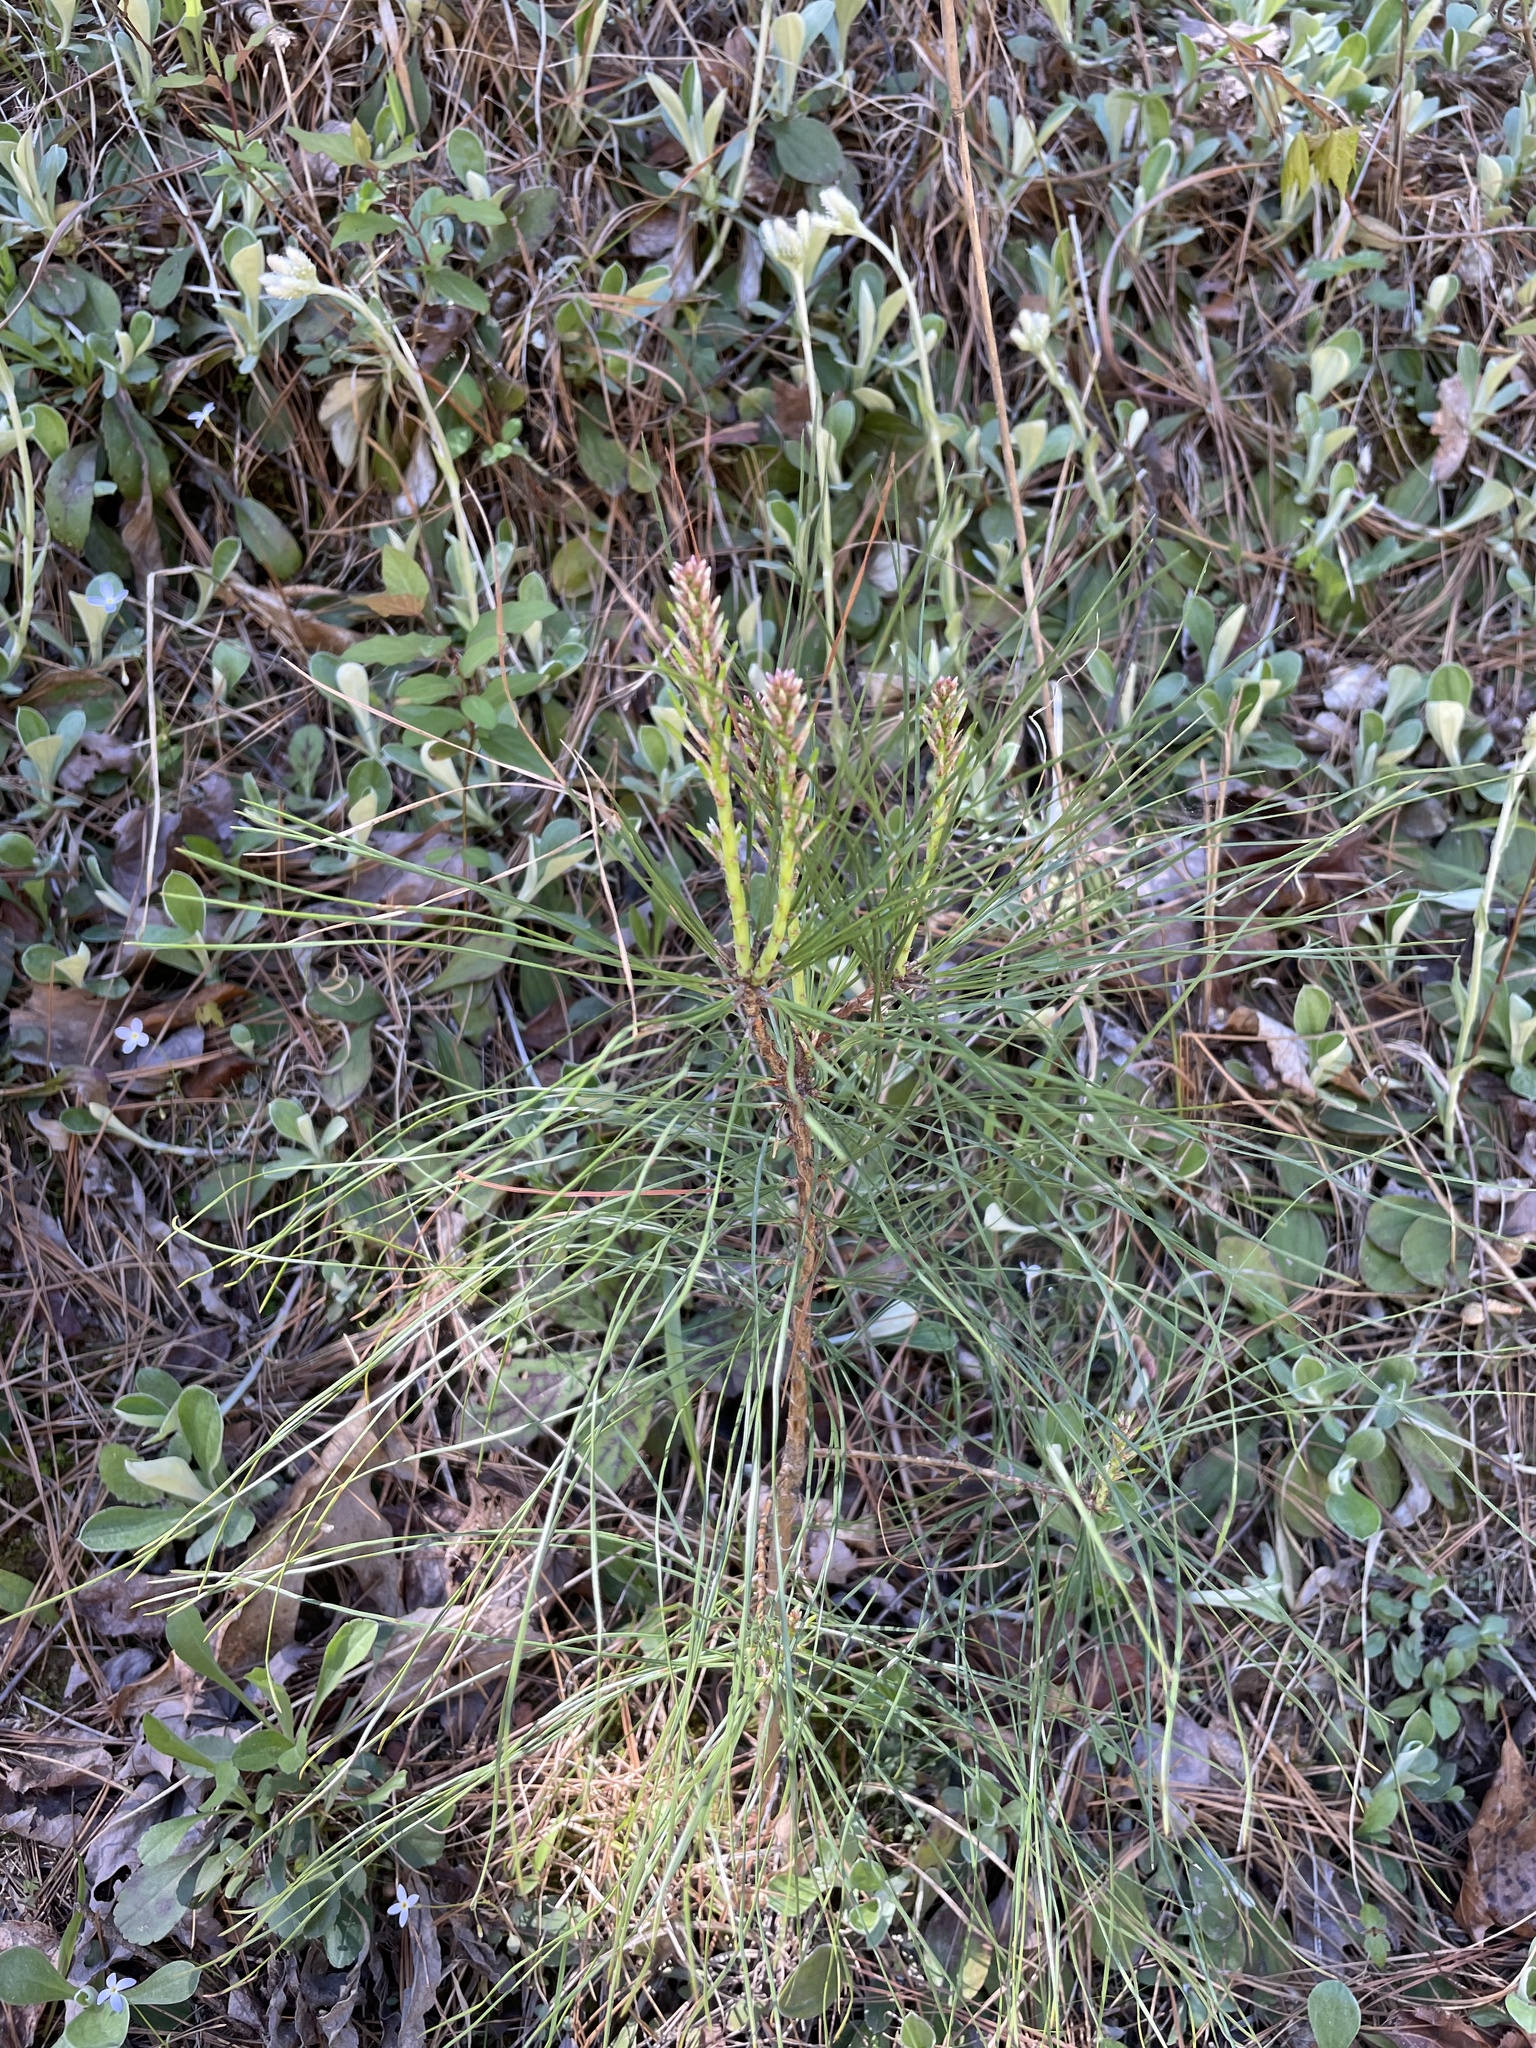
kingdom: Plantae
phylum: Tracheophyta
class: Pinopsida
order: Pinales
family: Pinaceae
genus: Pinus
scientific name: Pinus taeda
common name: Loblolly pine
